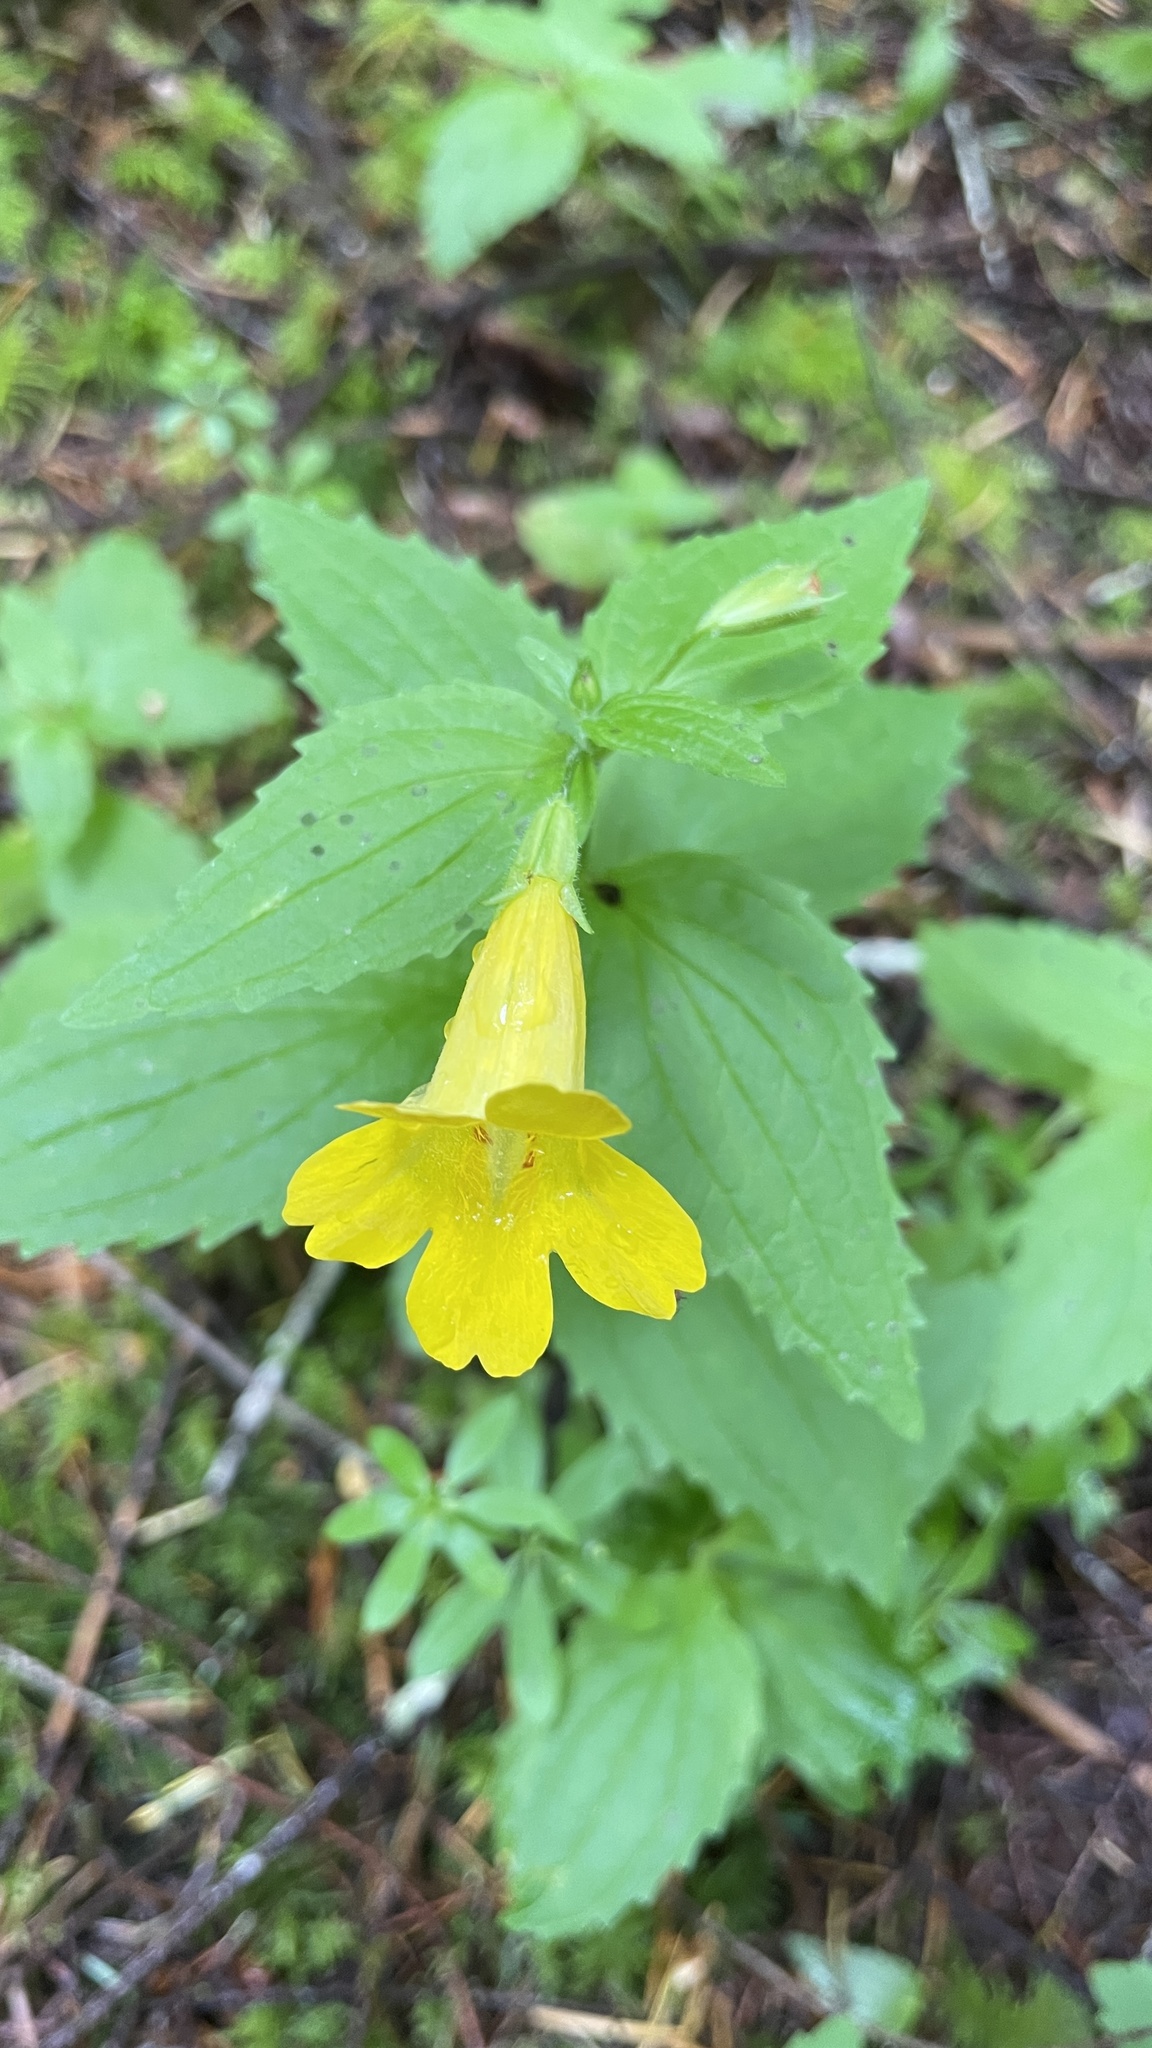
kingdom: Plantae
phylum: Tracheophyta
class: Magnoliopsida
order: Lamiales
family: Phrymaceae
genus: Erythranthe
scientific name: Erythranthe dentata
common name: Coastal monkeyflower
